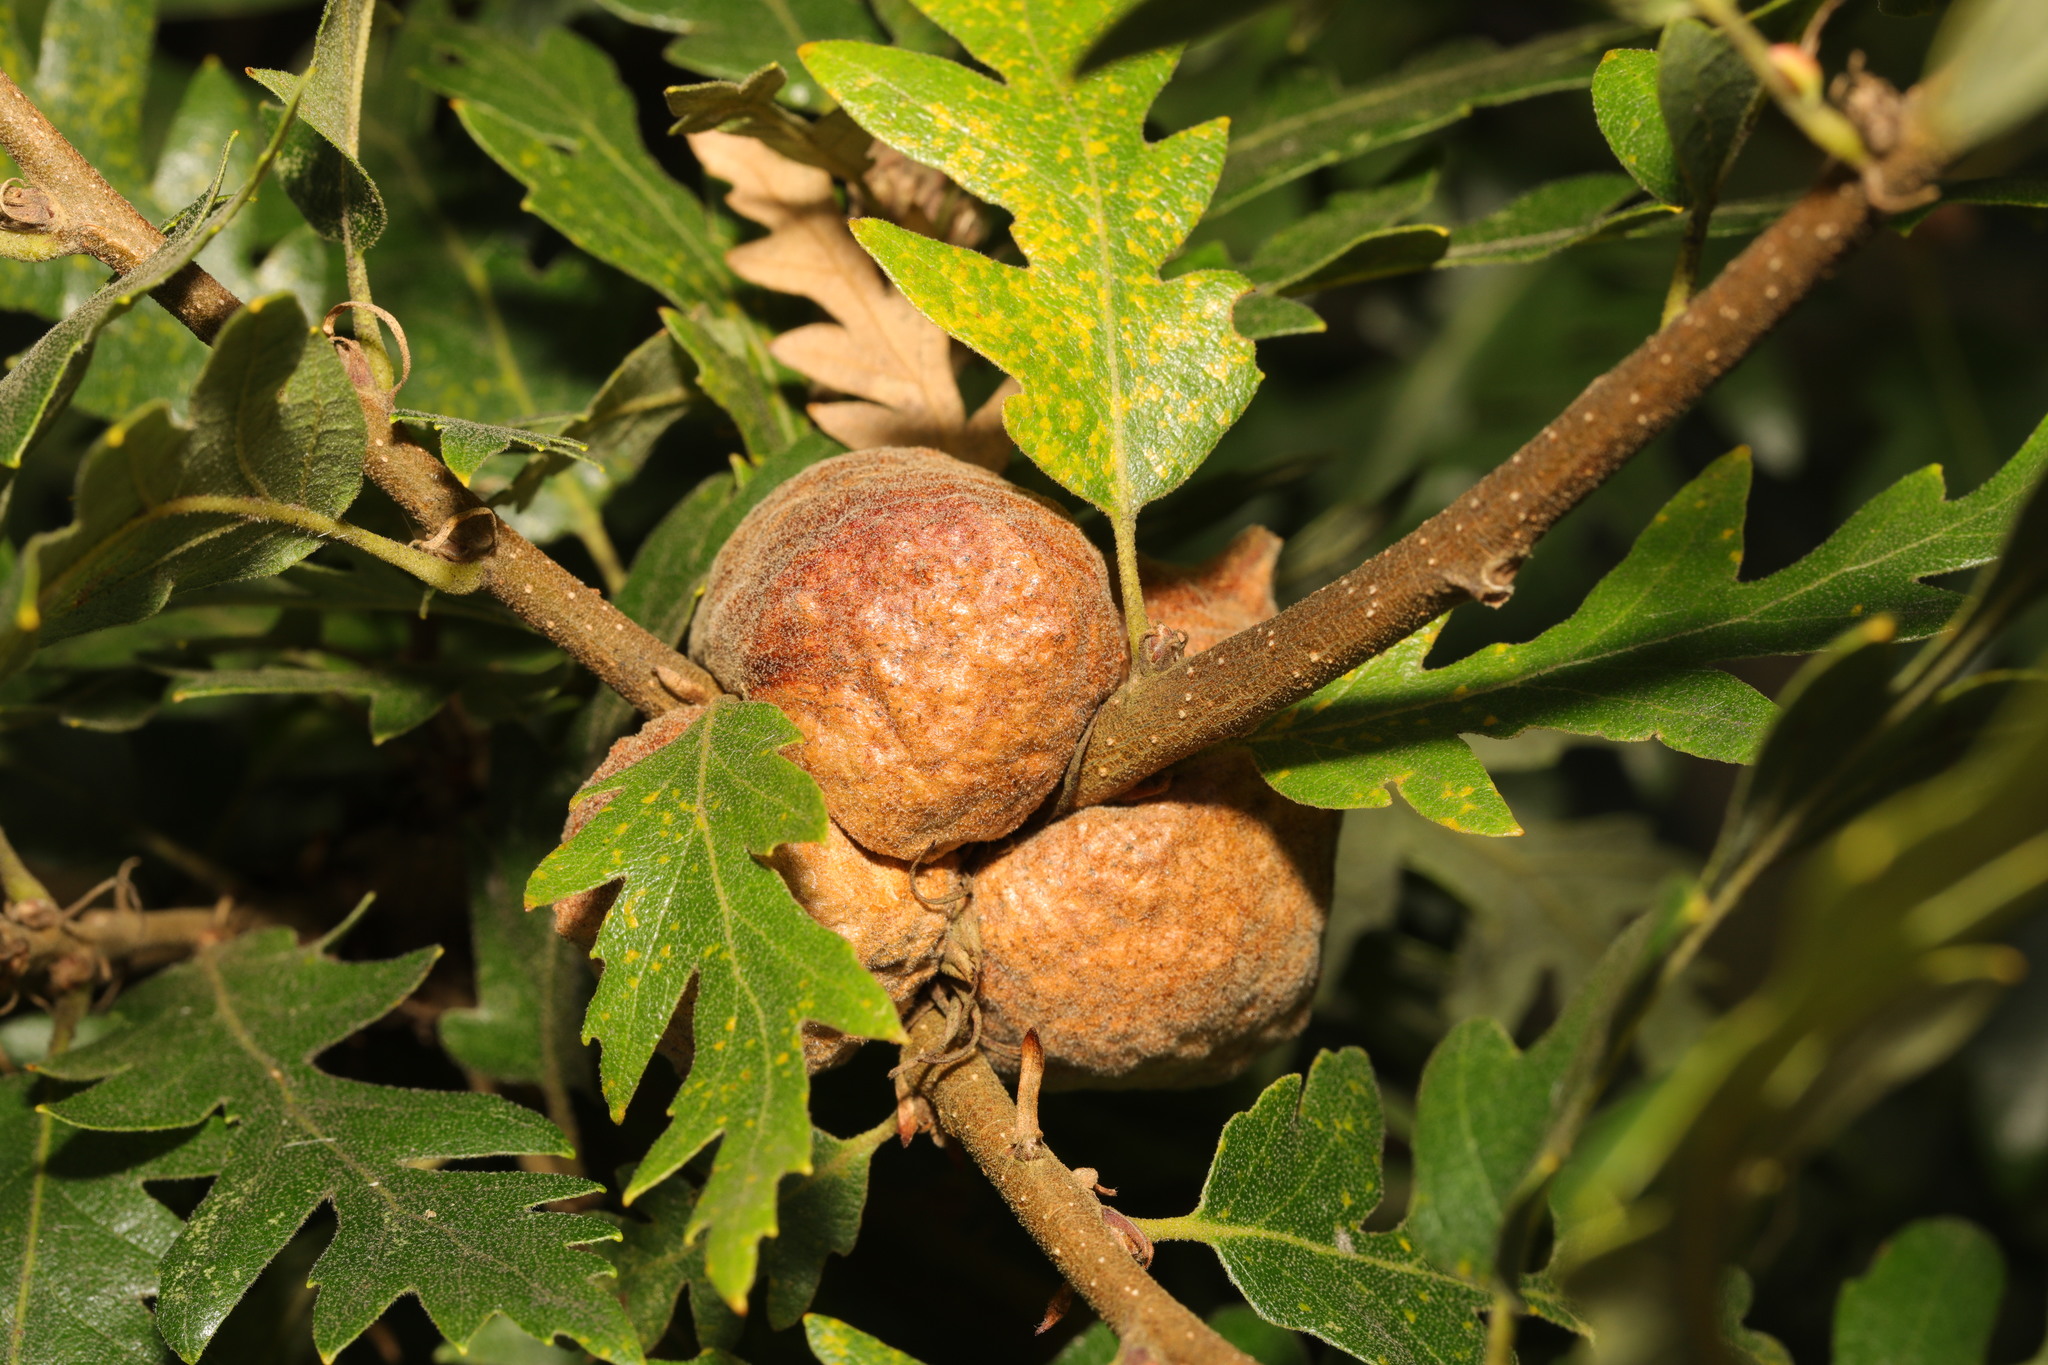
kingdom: Animalia
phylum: Arthropoda
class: Insecta
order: Hymenoptera
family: Cynipidae
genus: Aphelonyx
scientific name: Aphelonyx cerricola
